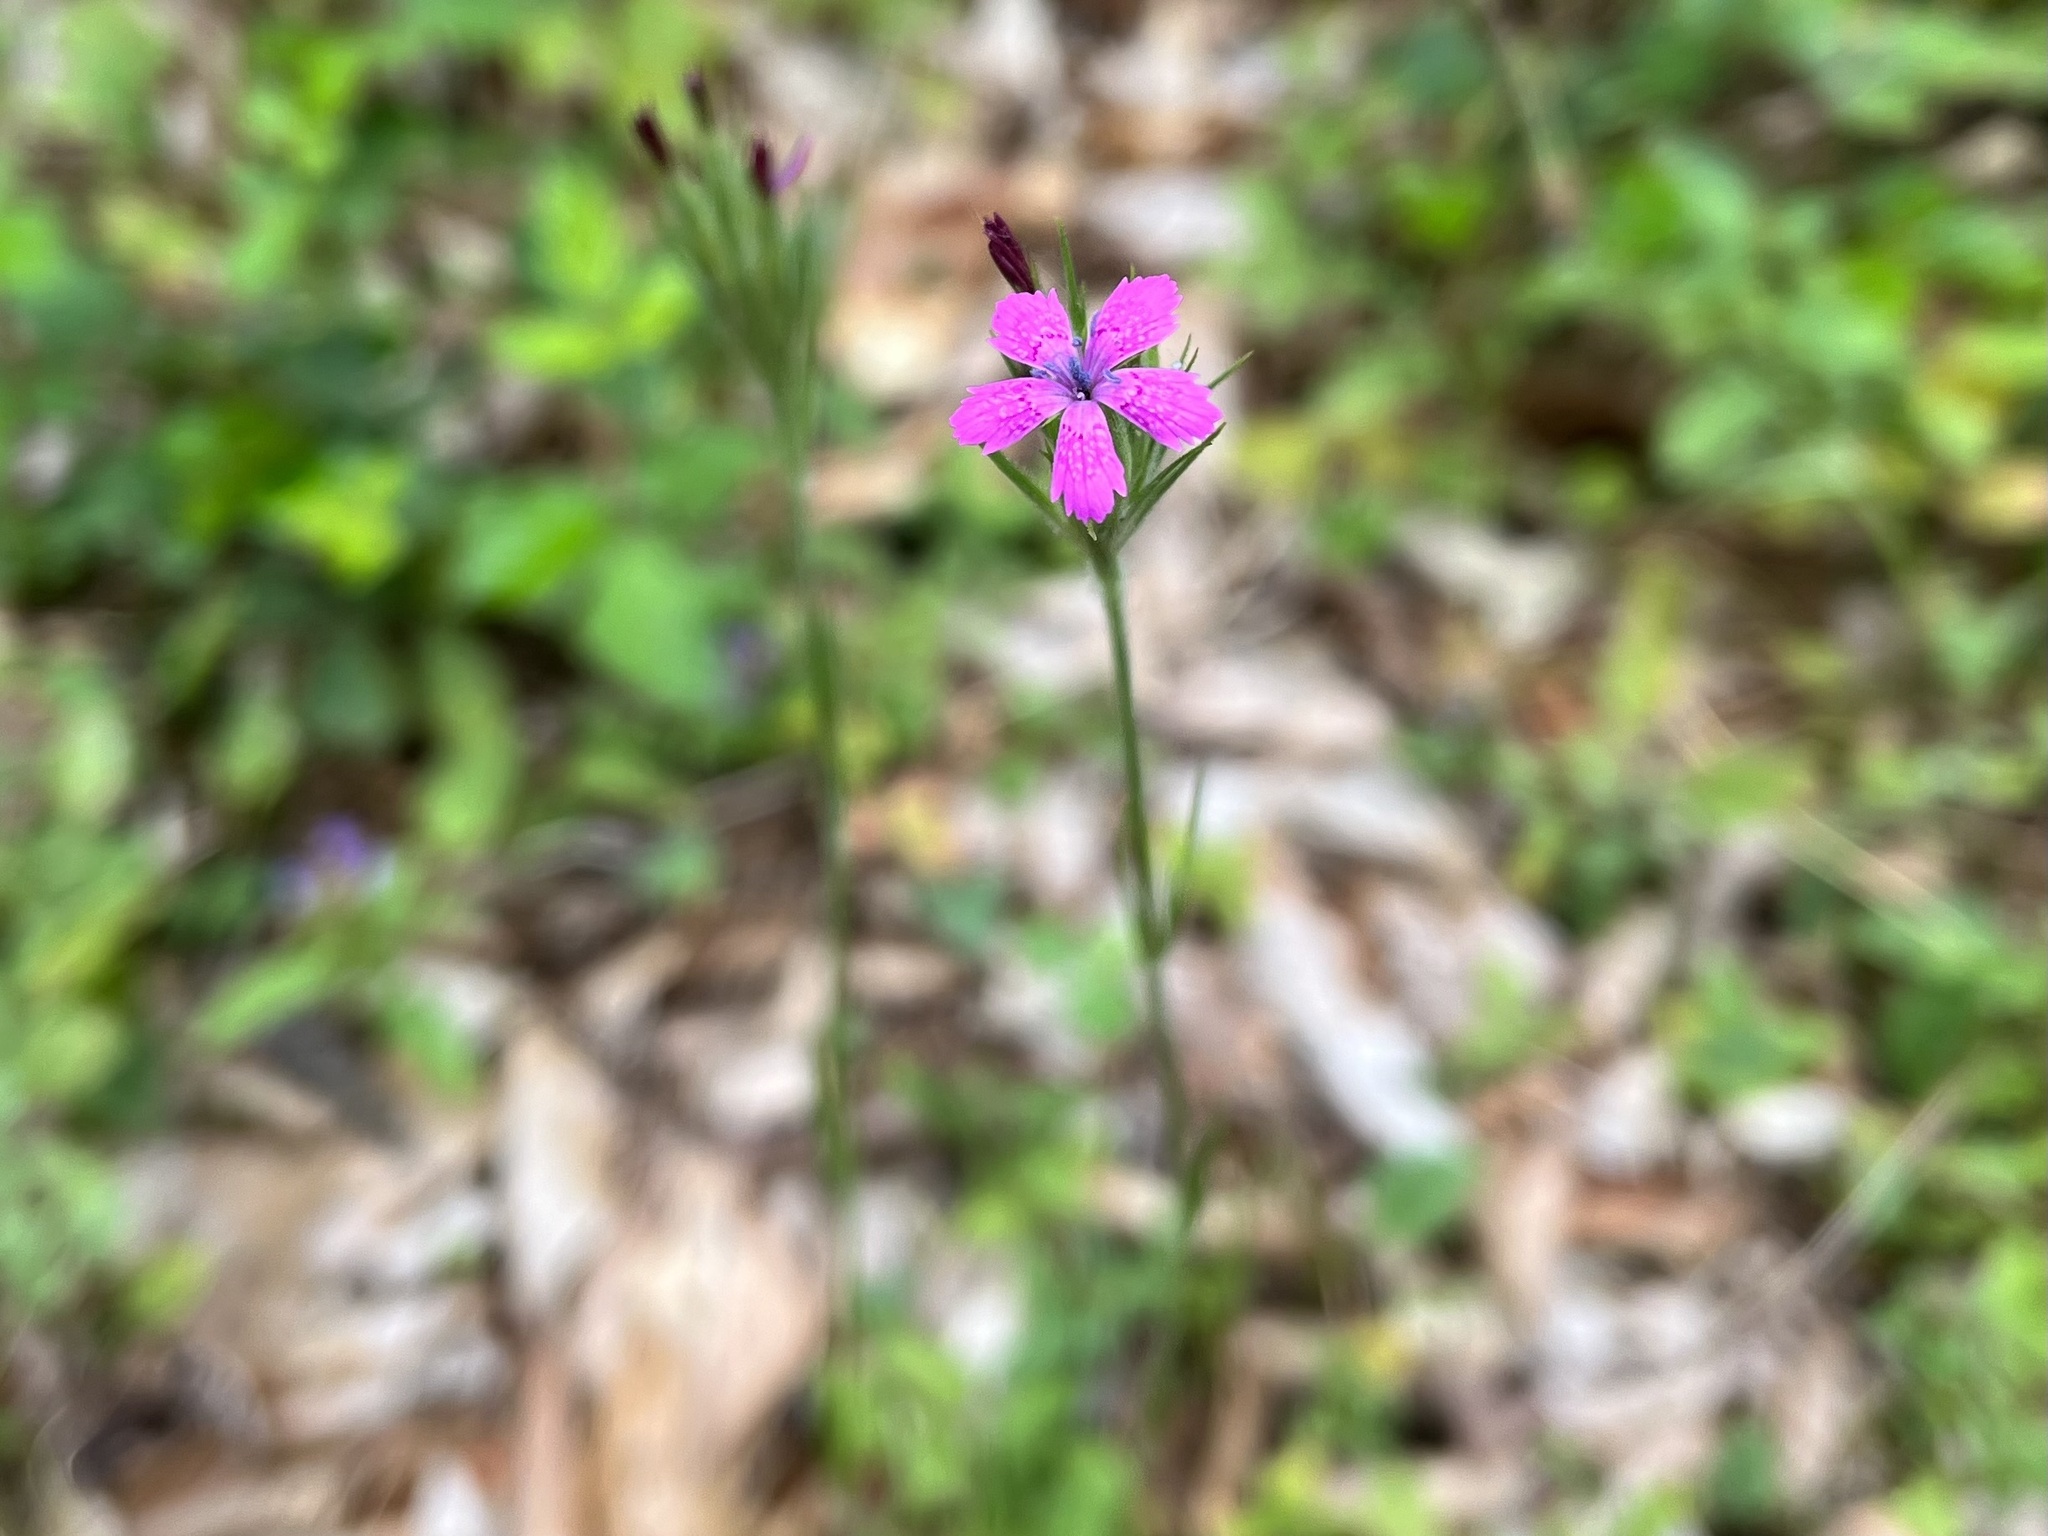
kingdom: Plantae
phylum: Tracheophyta
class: Magnoliopsida
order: Caryophyllales
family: Caryophyllaceae
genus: Dianthus
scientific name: Dianthus armeria
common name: Deptford pink
